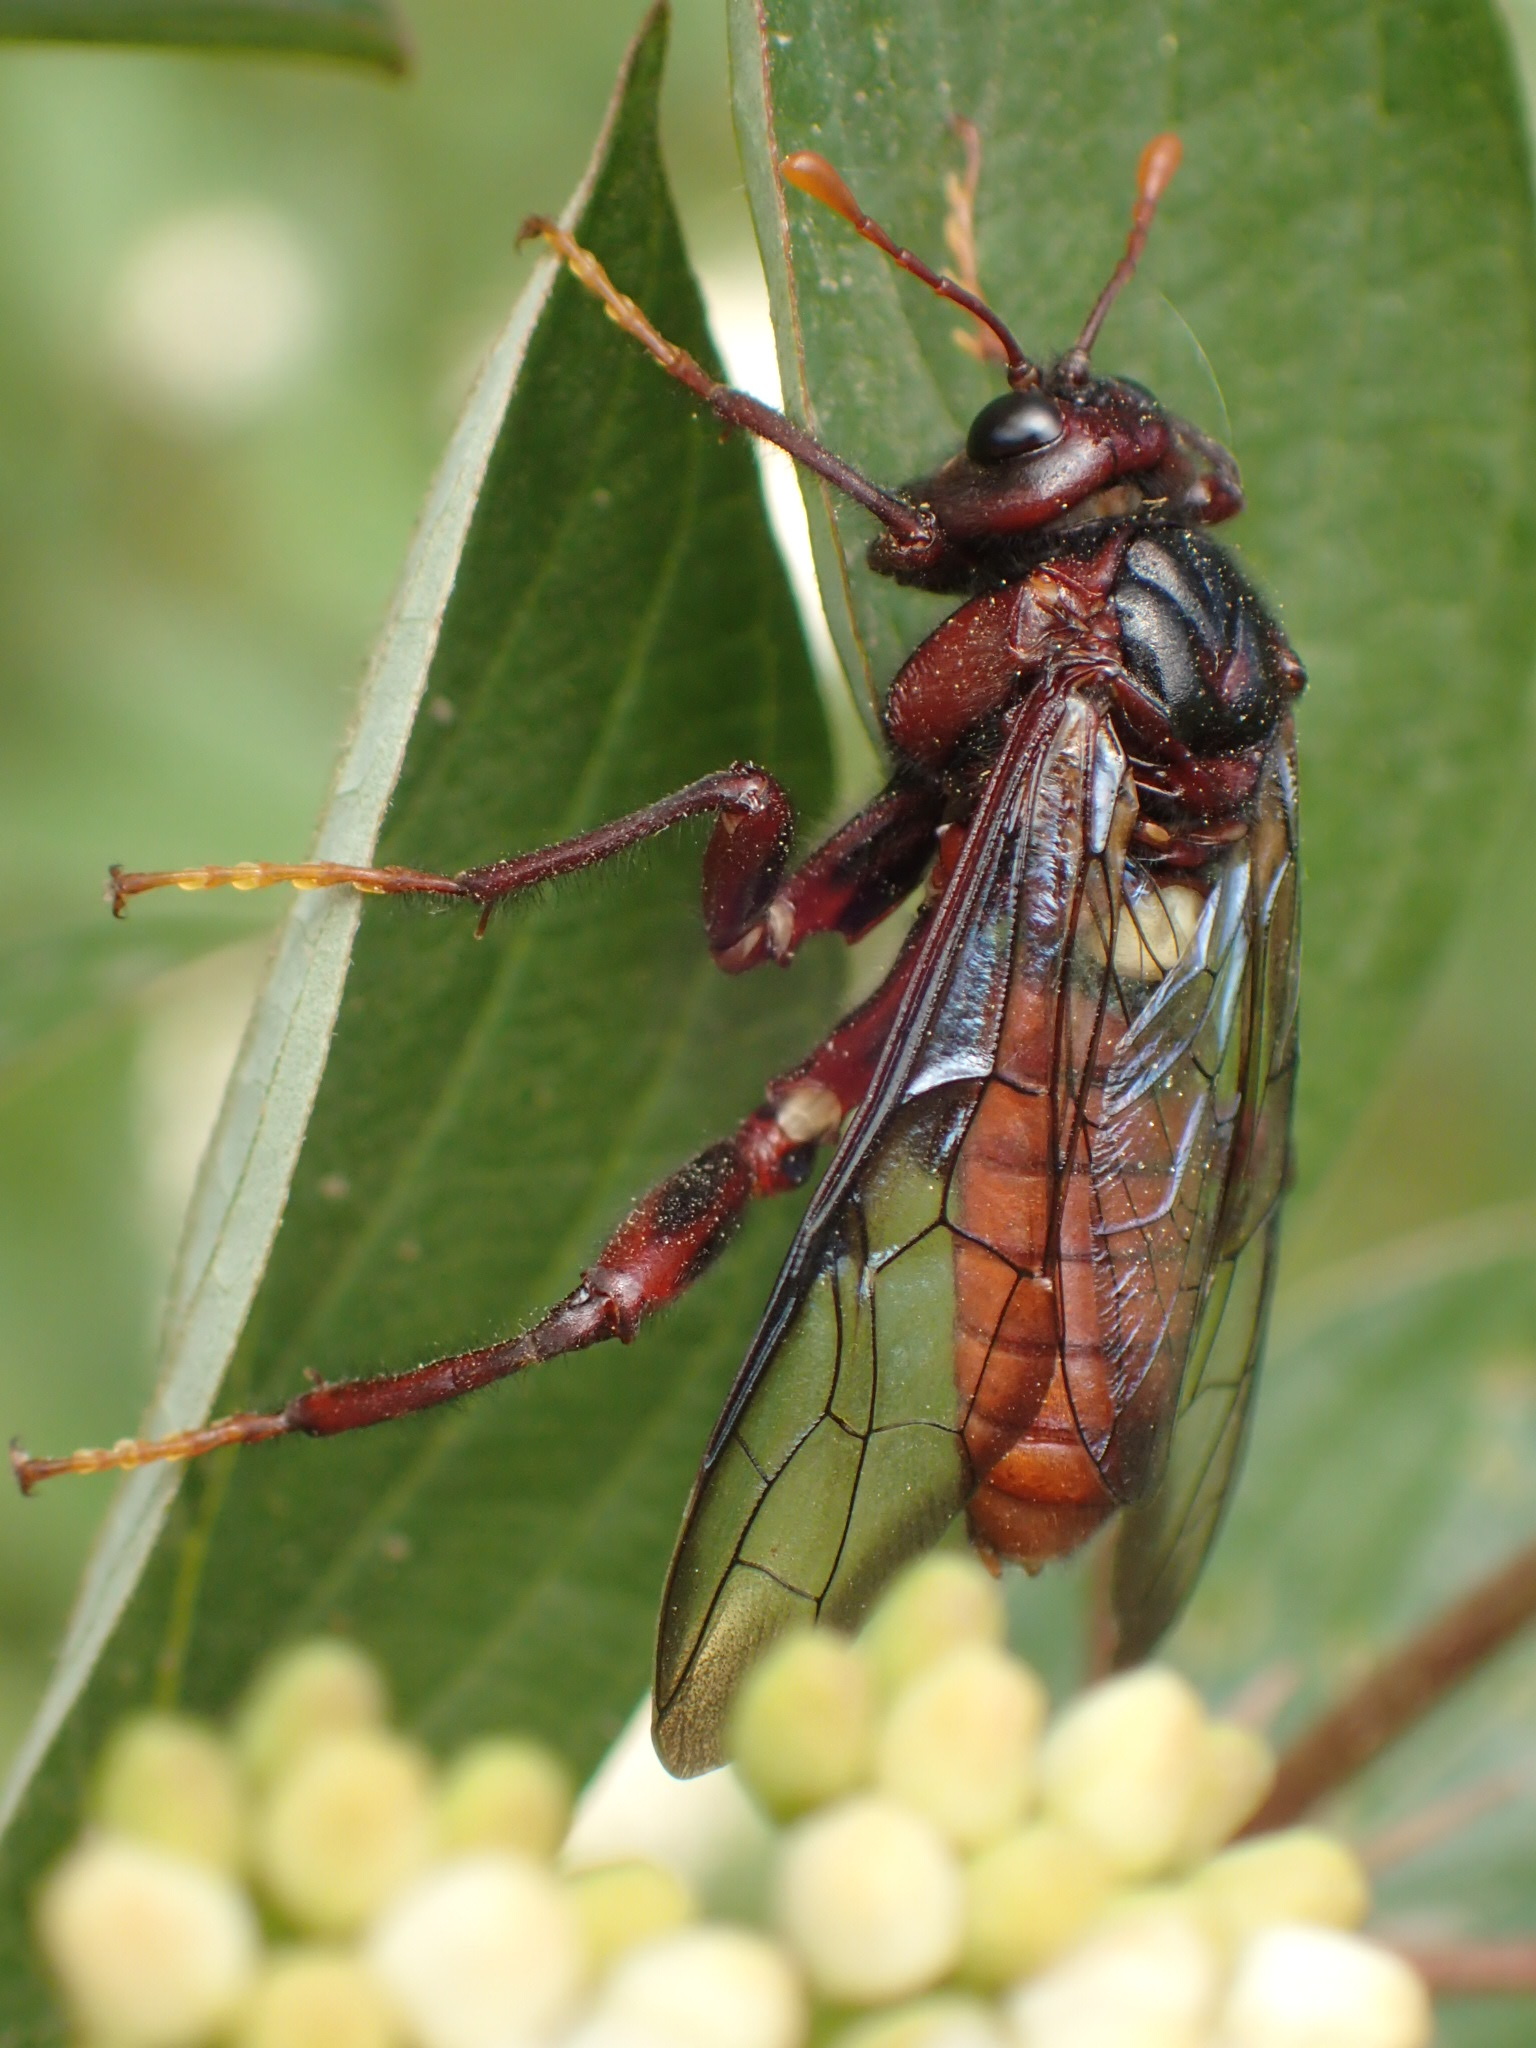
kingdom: Animalia
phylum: Arthropoda
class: Insecta
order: Hymenoptera
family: Cimbicidae
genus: Cimbex
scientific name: Cimbex americana
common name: Elm sawfly
